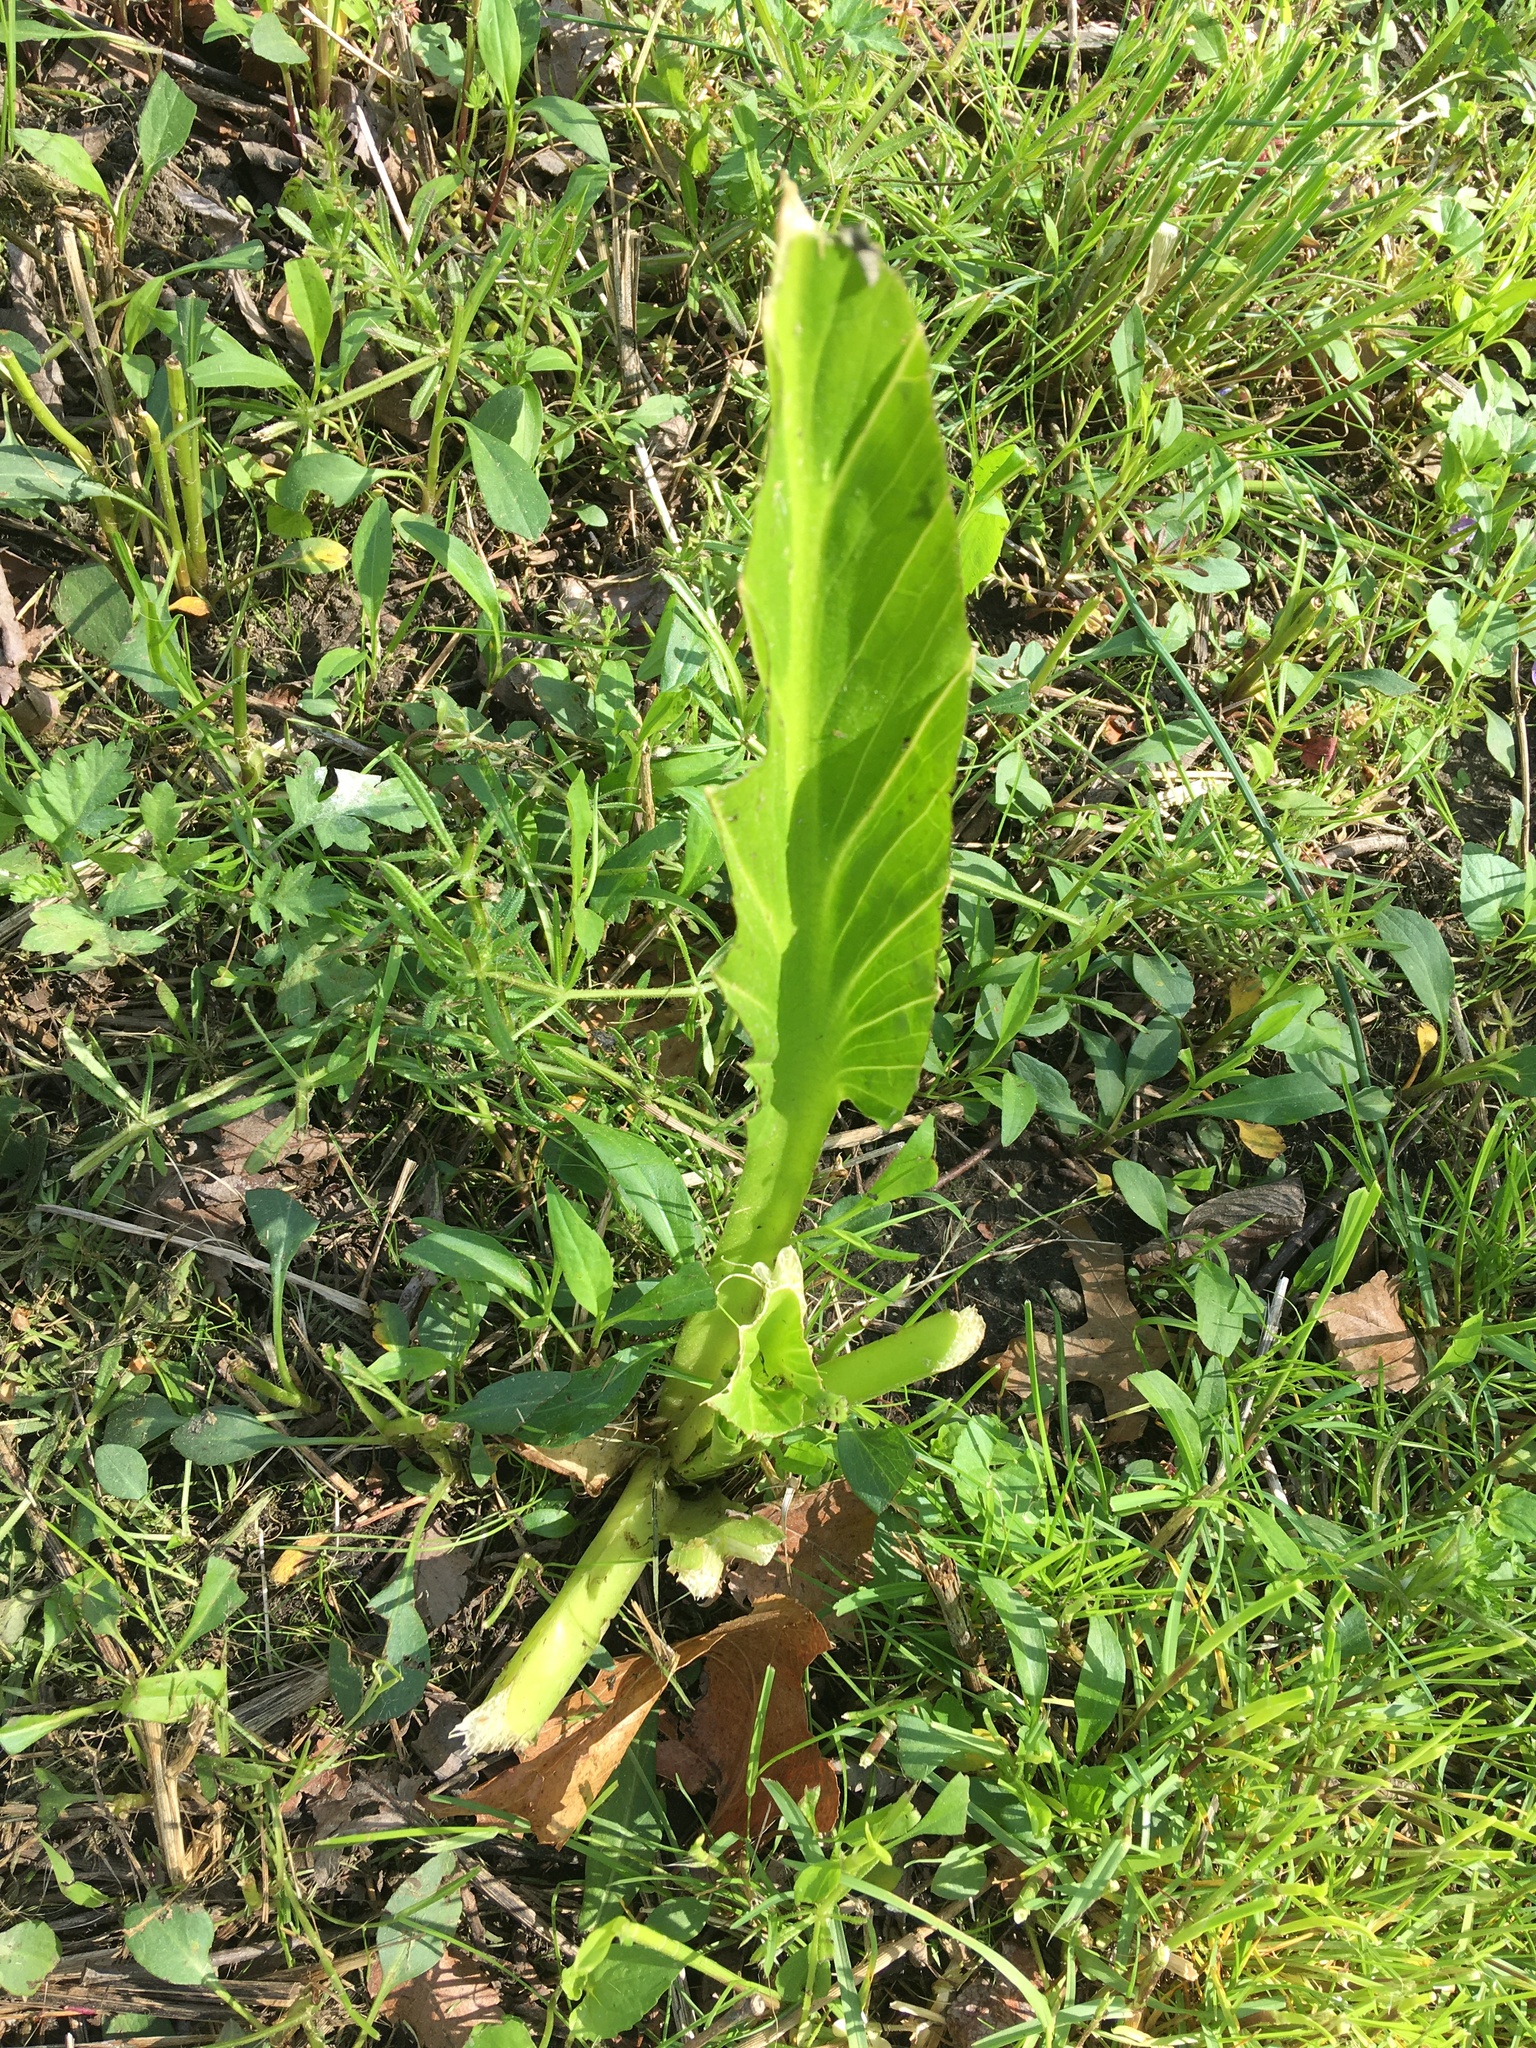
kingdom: Plantae
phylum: Tracheophyta
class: Liliopsida
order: Alismatales
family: Araceae
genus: Symplocarpus
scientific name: Symplocarpus foetidus
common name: Eastern skunk cabbage
